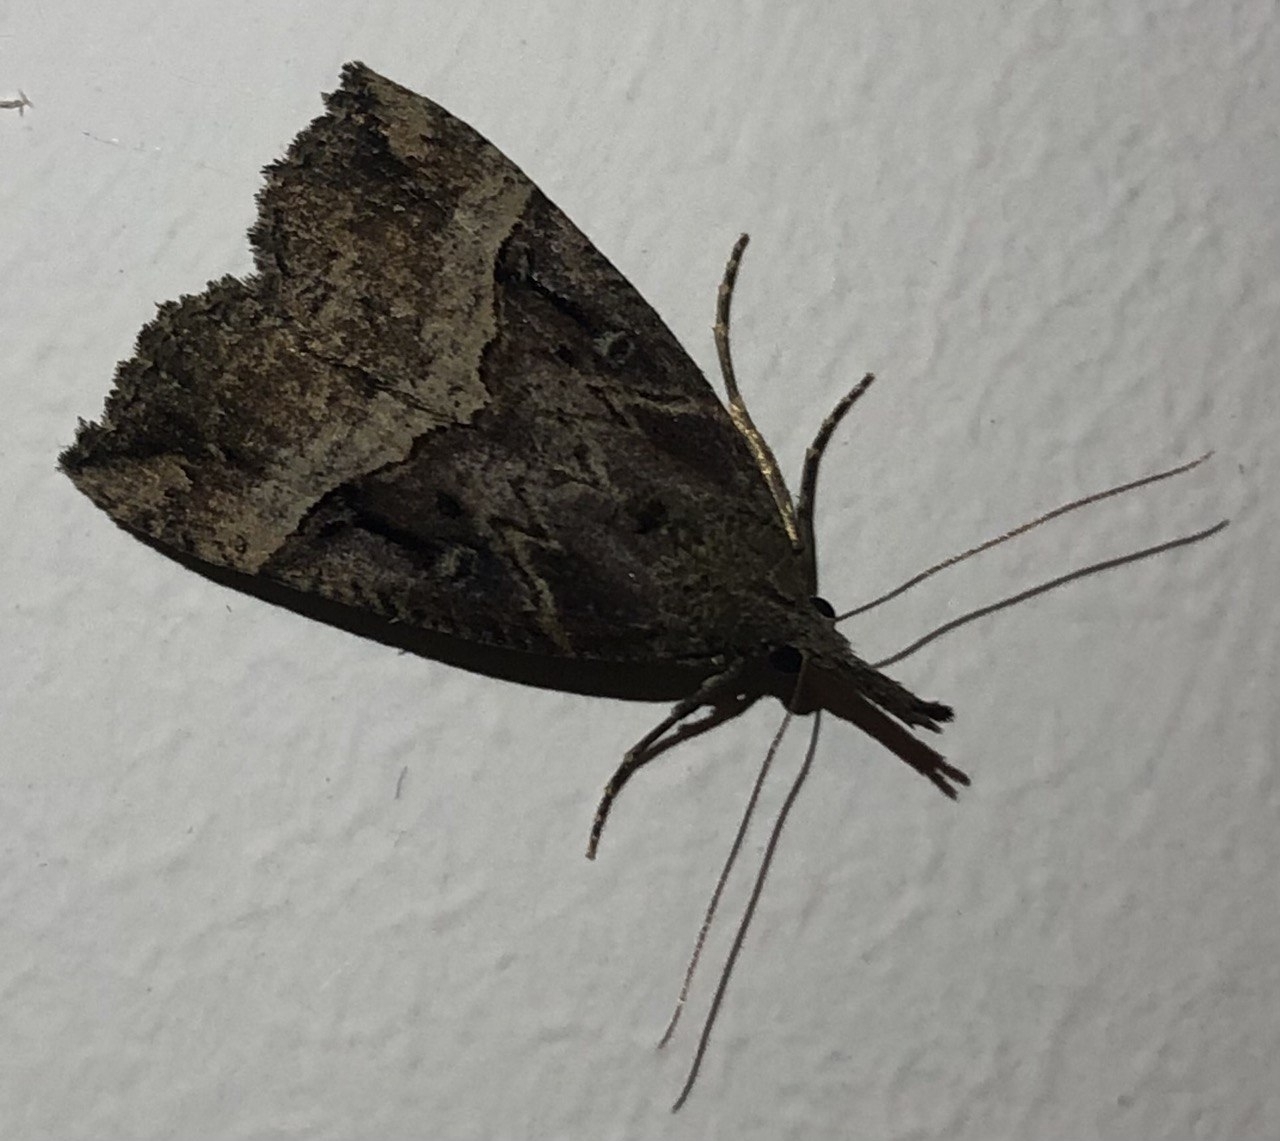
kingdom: Animalia
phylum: Arthropoda
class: Insecta
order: Lepidoptera
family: Erebidae
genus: Hypena
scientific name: Hypena rostralis
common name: Buttoned snout
